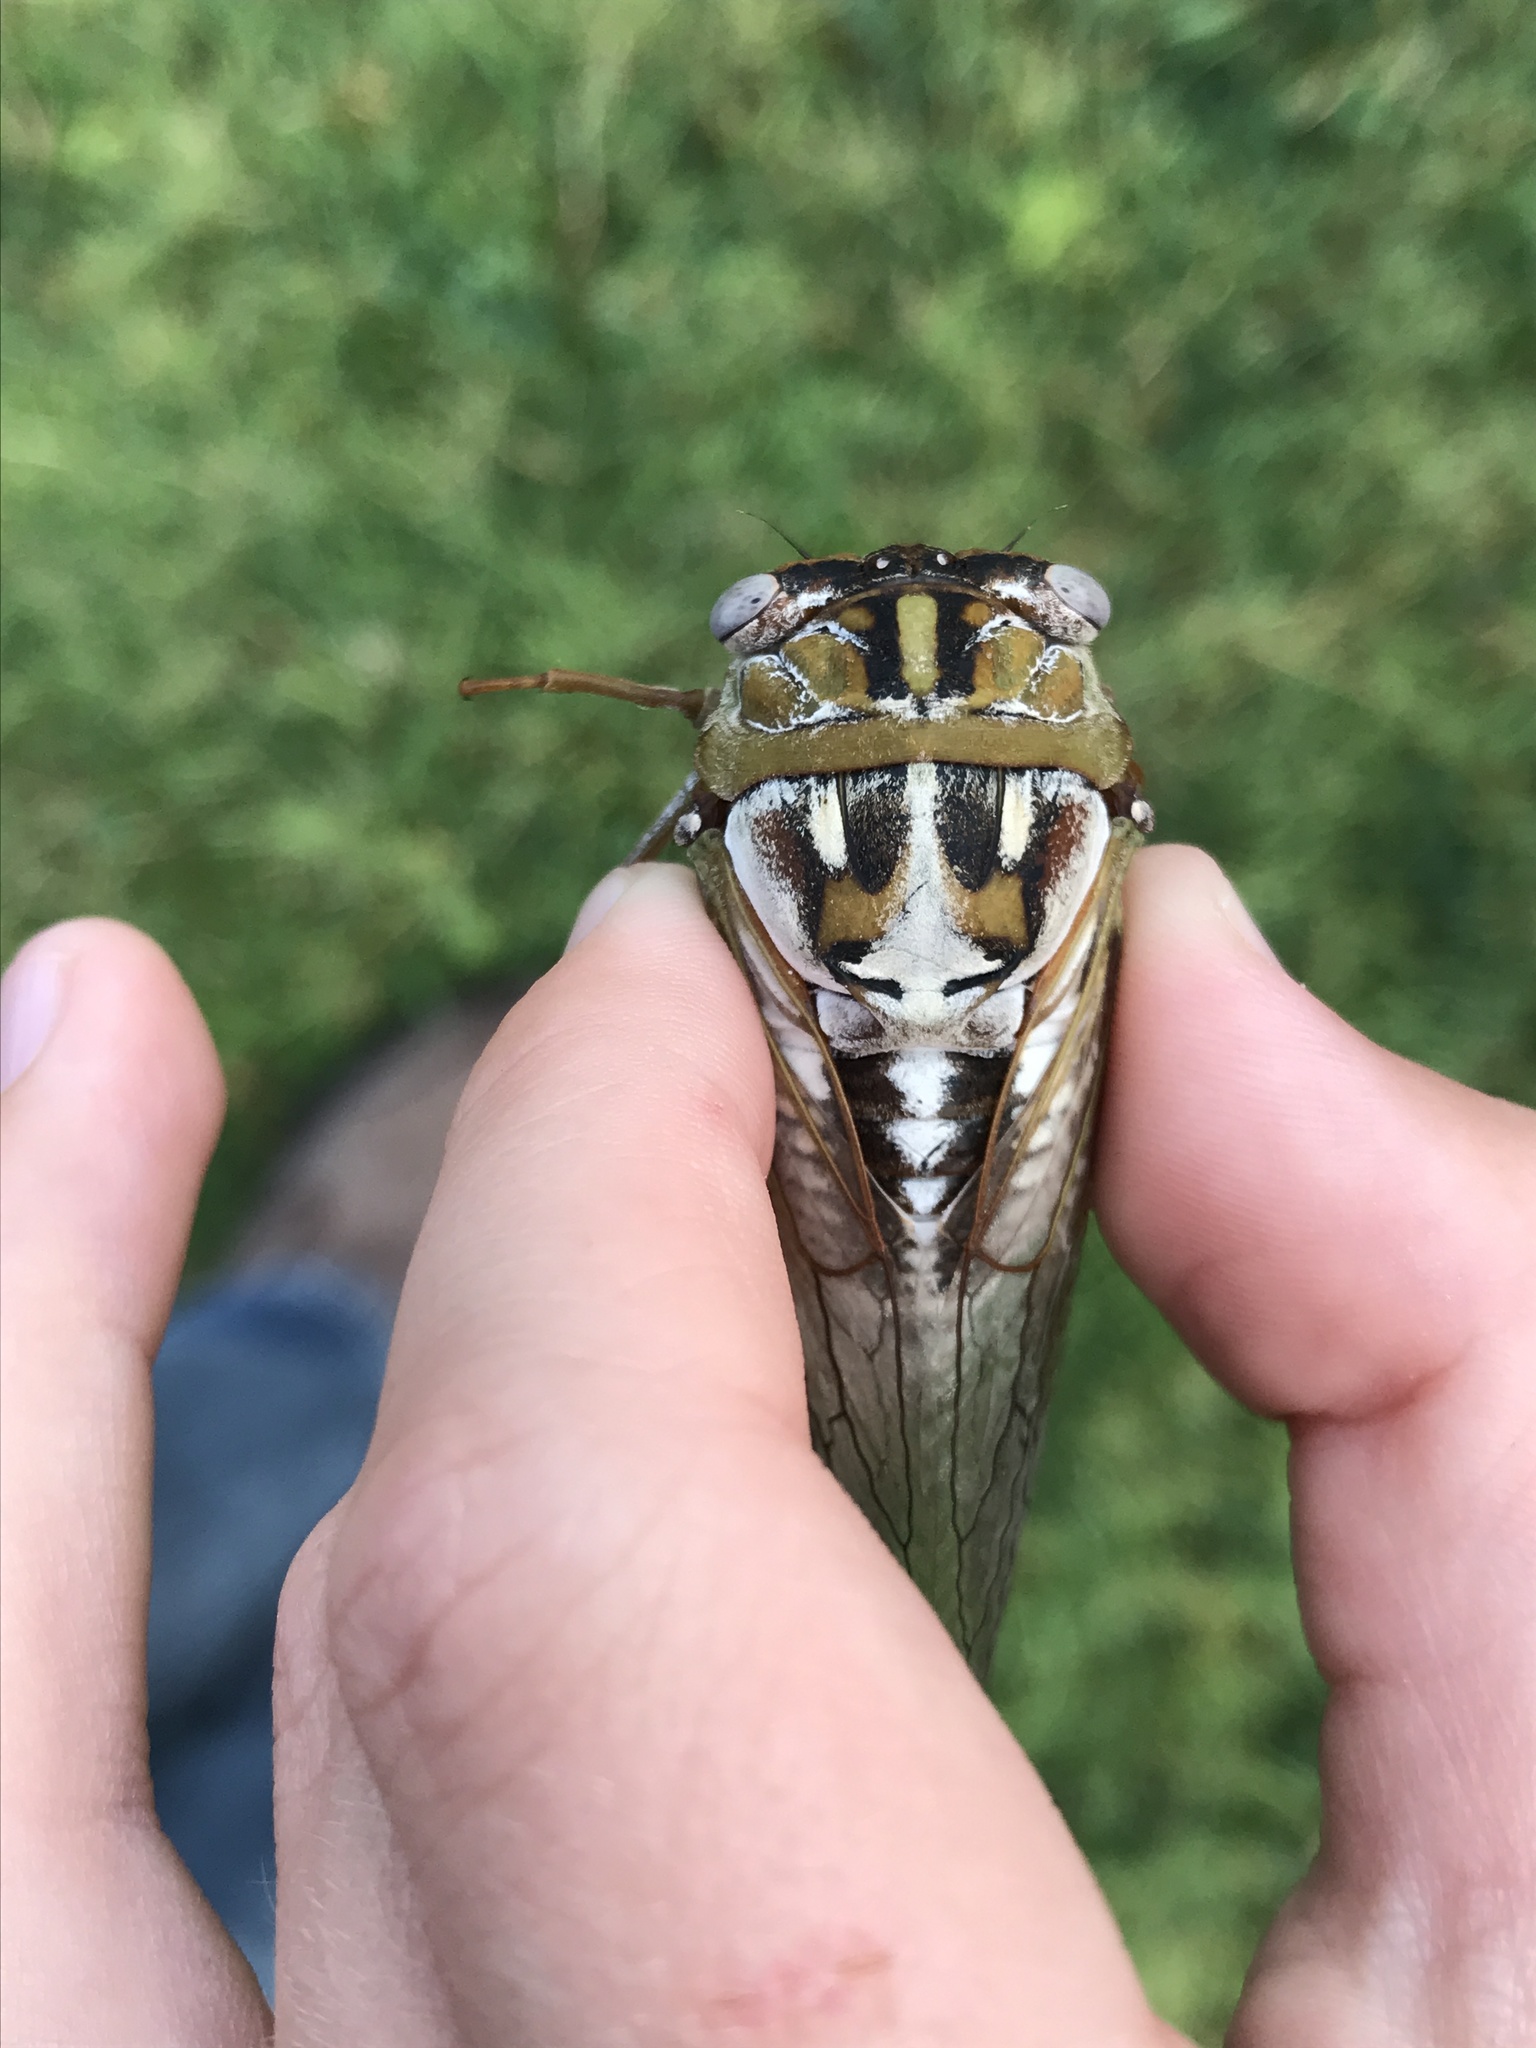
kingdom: Animalia
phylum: Arthropoda
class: Insecta
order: Hemiptera
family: Cicadidae
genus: Megatibicen
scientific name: Megatibicen dealbatus
